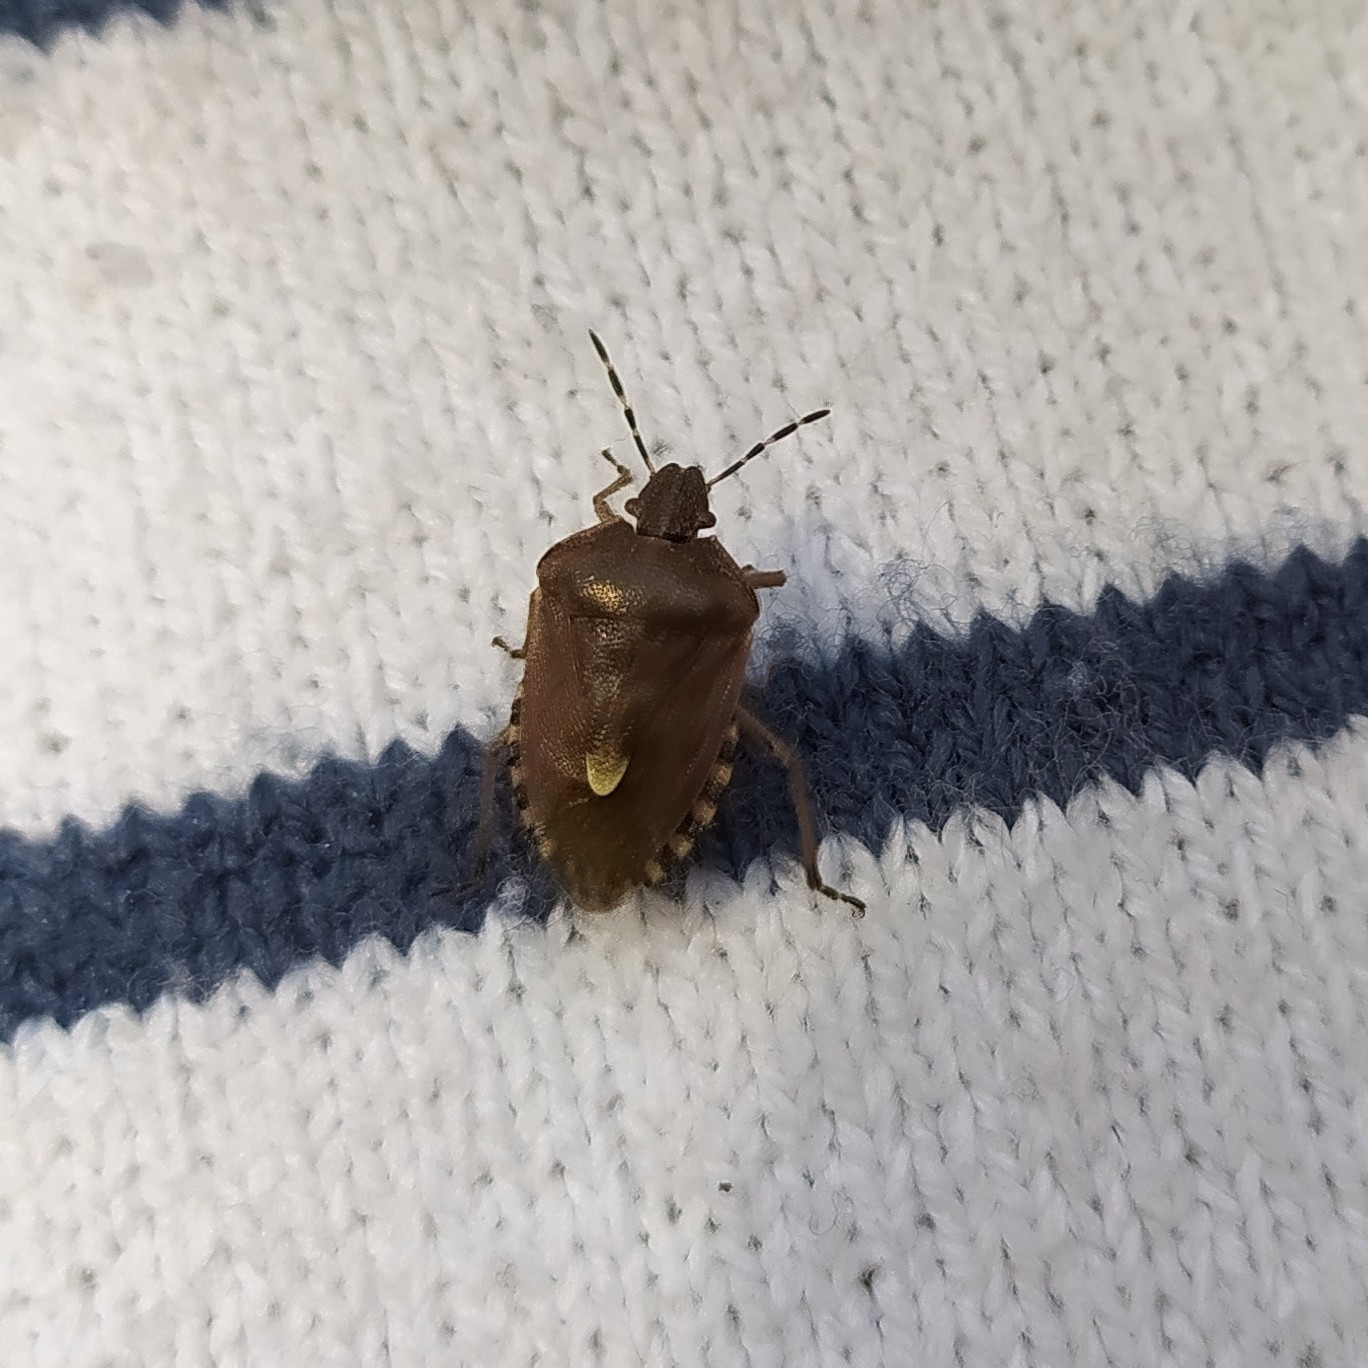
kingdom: Animalia
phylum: Arthropoda
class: Insecta
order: Hemiptera
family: Pentatomidae
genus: Dolycoris
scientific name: Dolycoris baccarum
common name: Sloe bug
